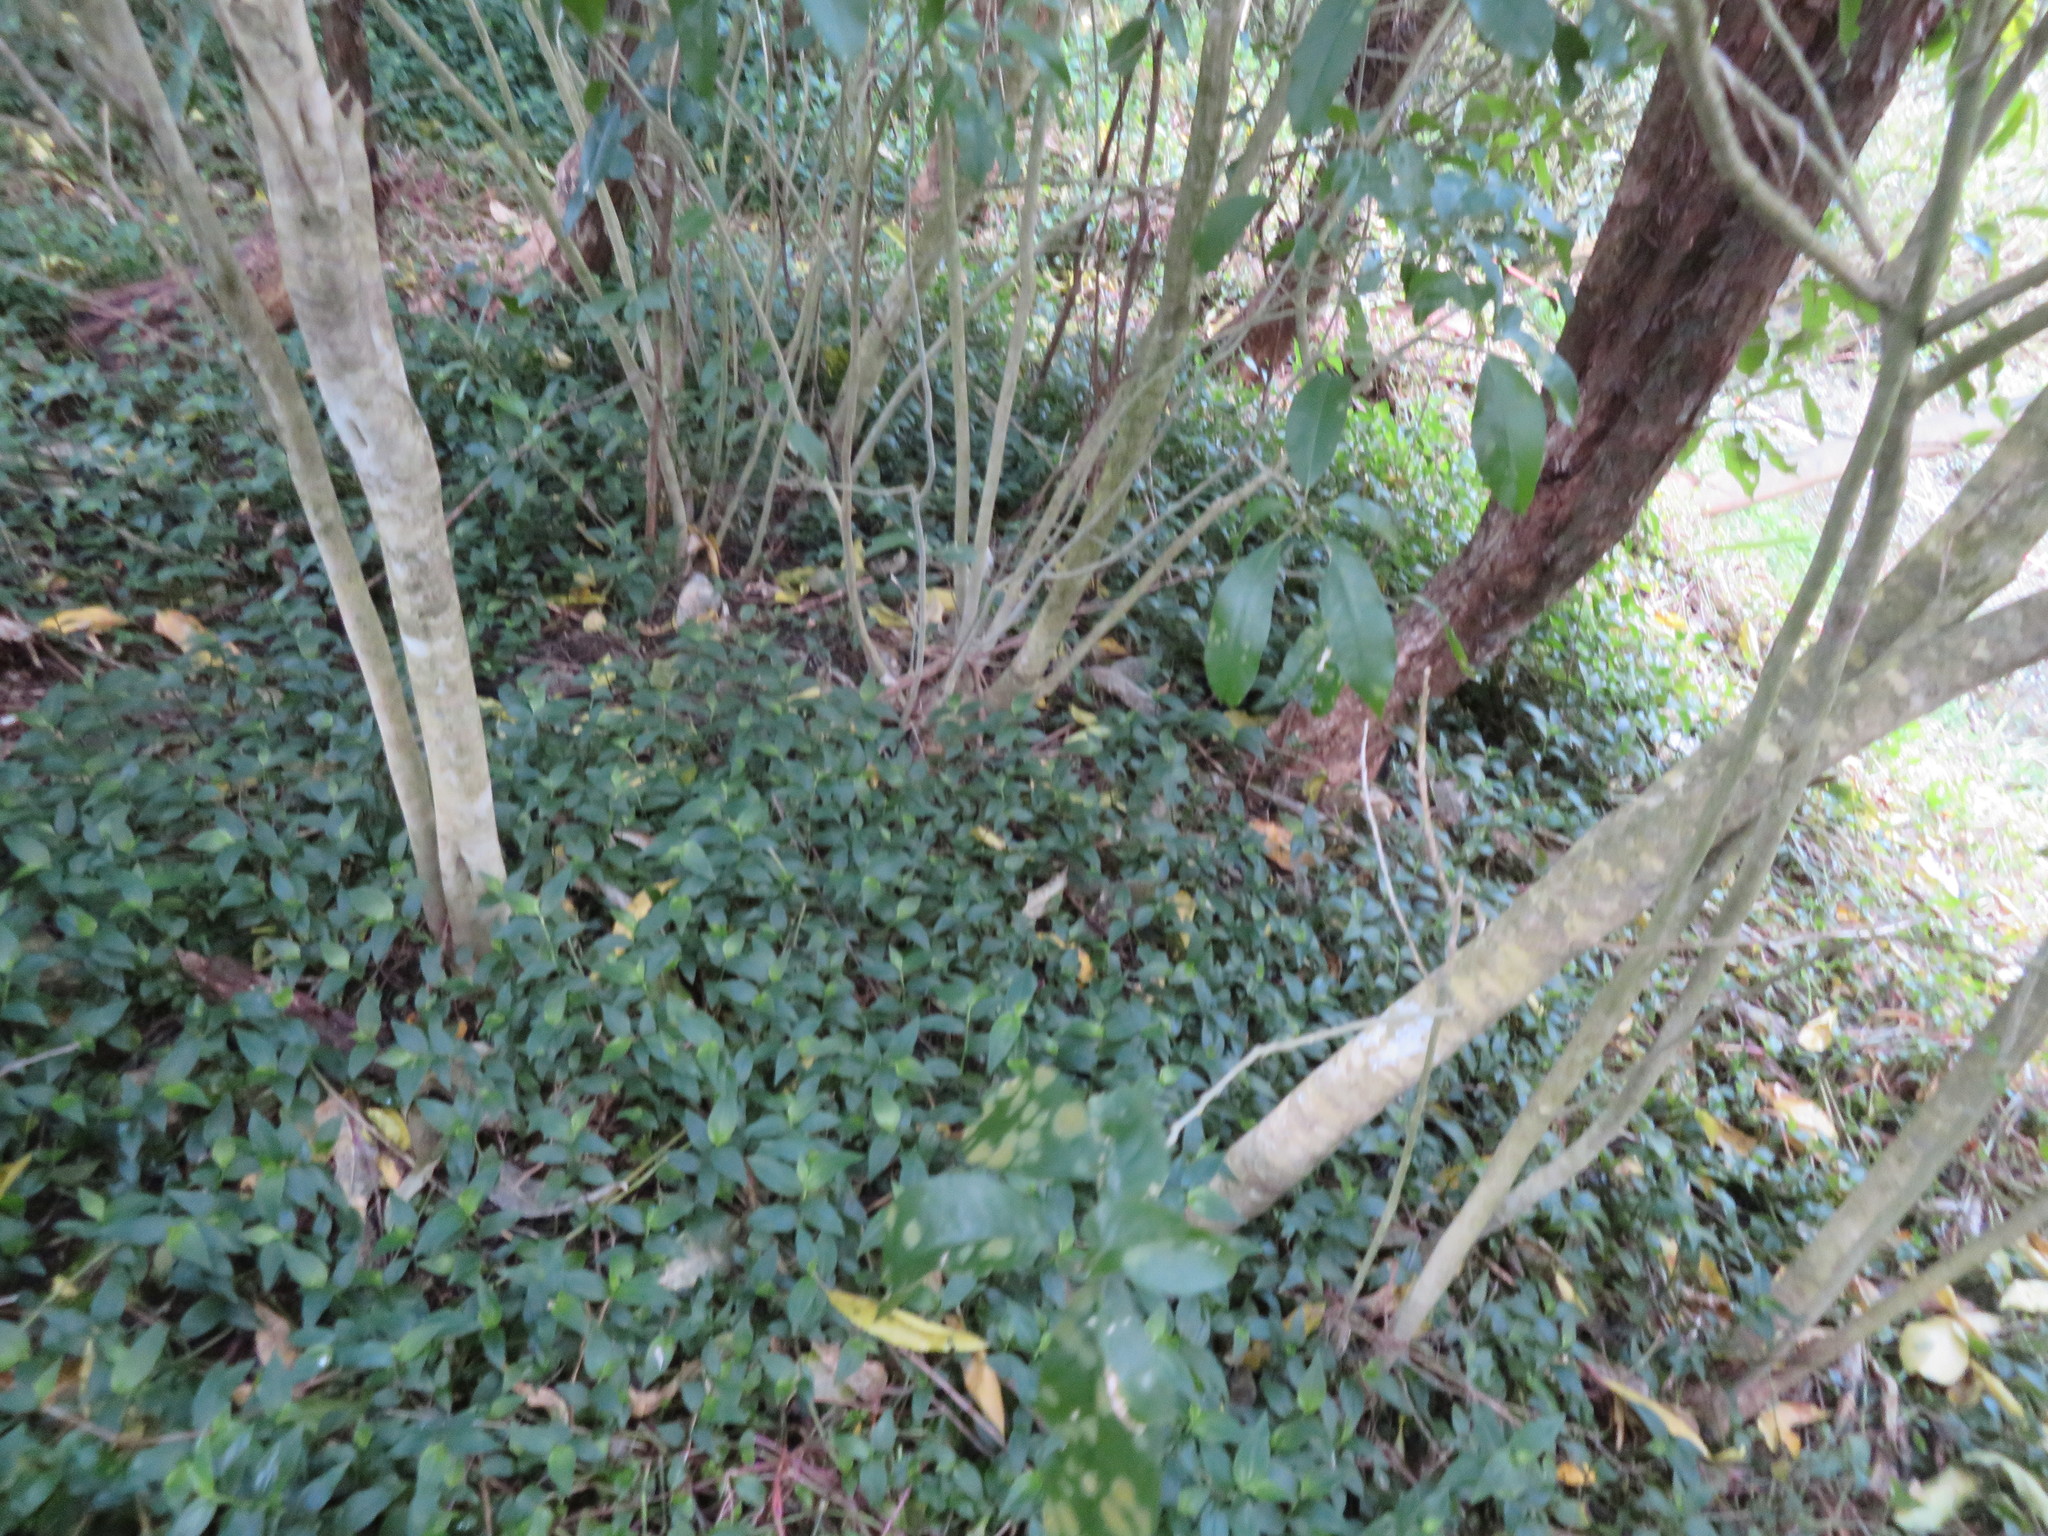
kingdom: Plantae
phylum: Tracheophyta
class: Magnoliopsida
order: Malpighiales
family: Violaceae
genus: Melicytus
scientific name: Melicytus ramiflorus
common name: Mahoe
